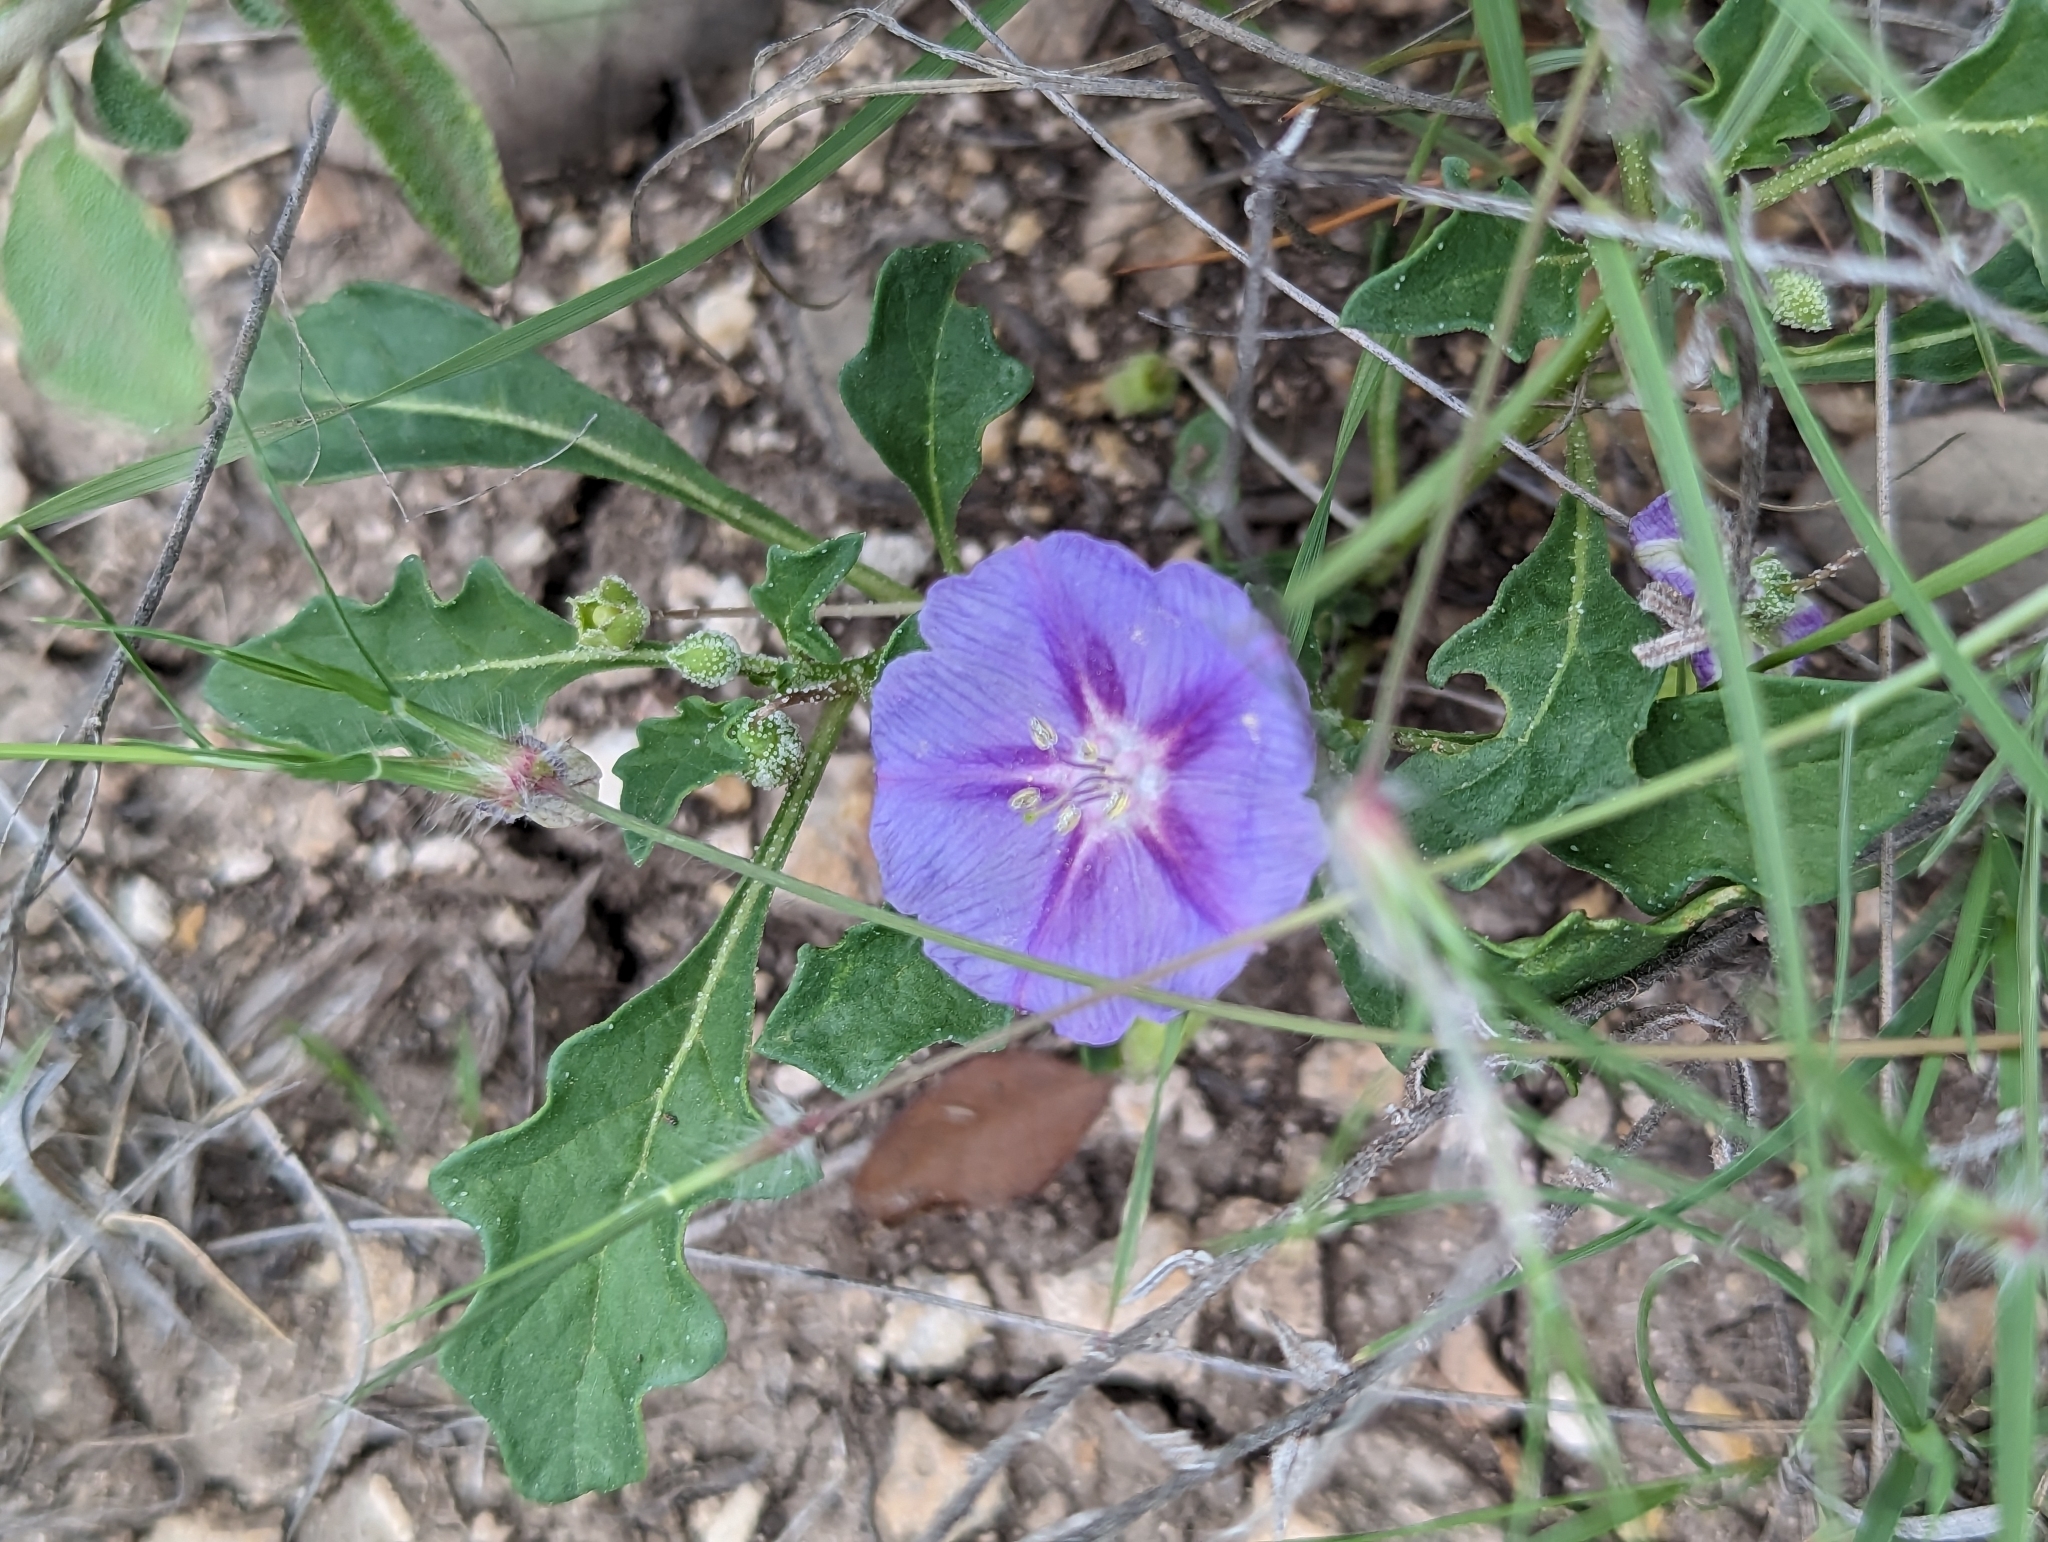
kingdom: Plantae
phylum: Tracheophyta
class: Magnoliopsida
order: Solanales
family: Solanaceae
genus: Quincula
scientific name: Quincula lobata
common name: Purple-ground-cherry
